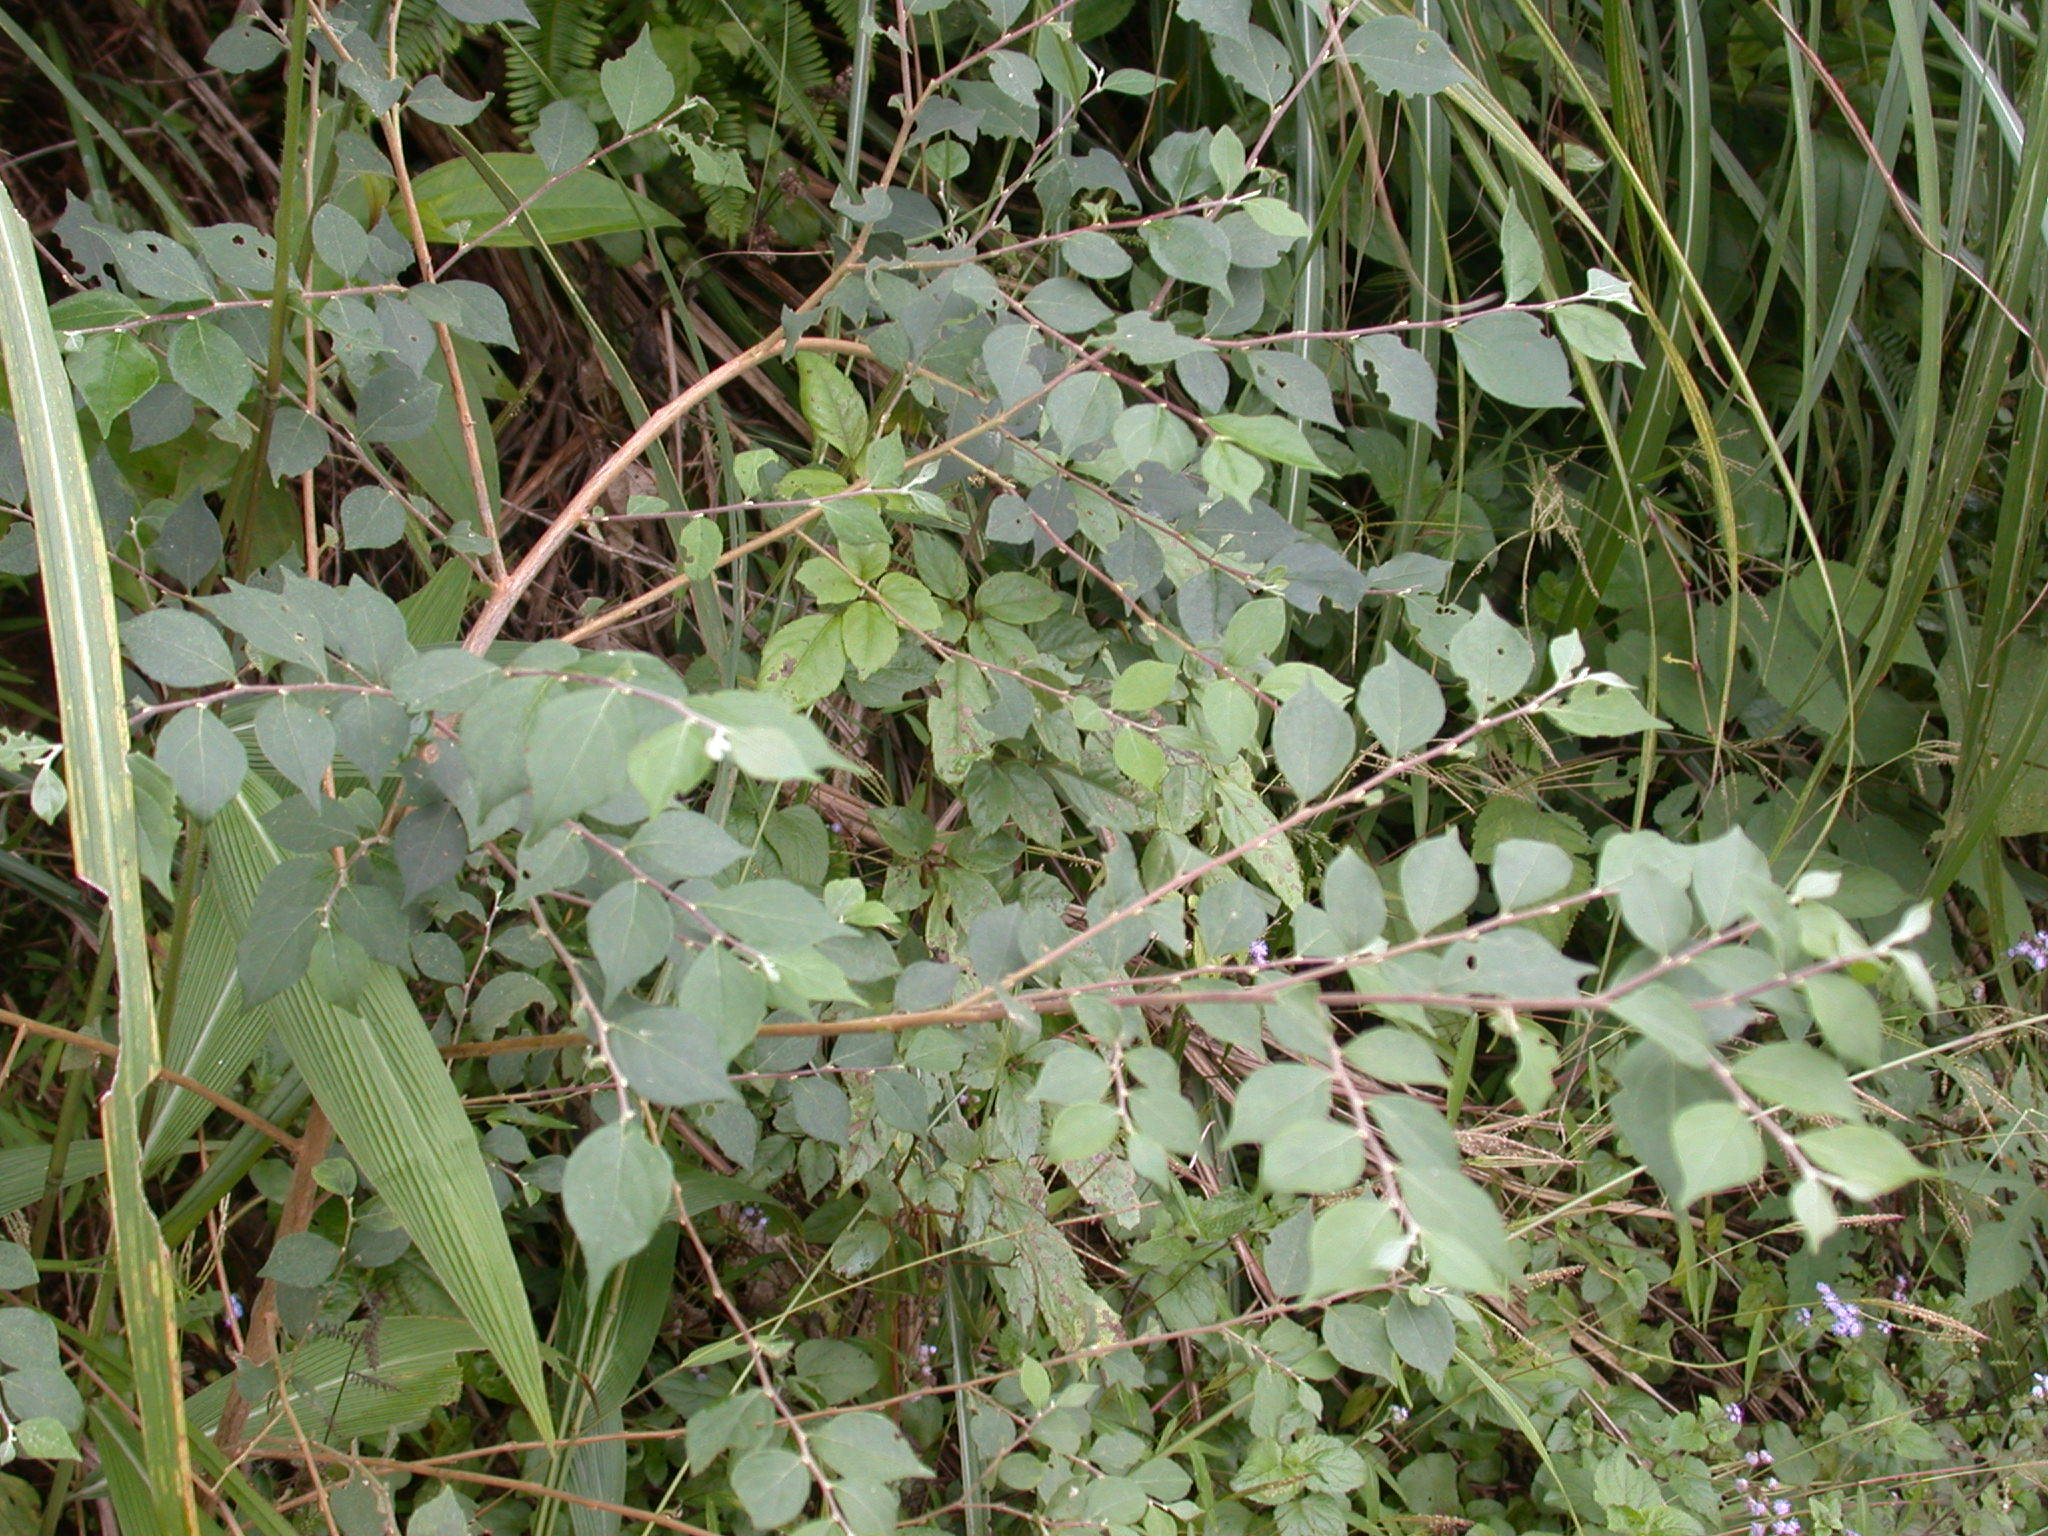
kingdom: Plantae
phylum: Tracheophyta
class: Magnoliopsida
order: Ericales
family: Styracaceae
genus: Styrax
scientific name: Styrax formosanus
